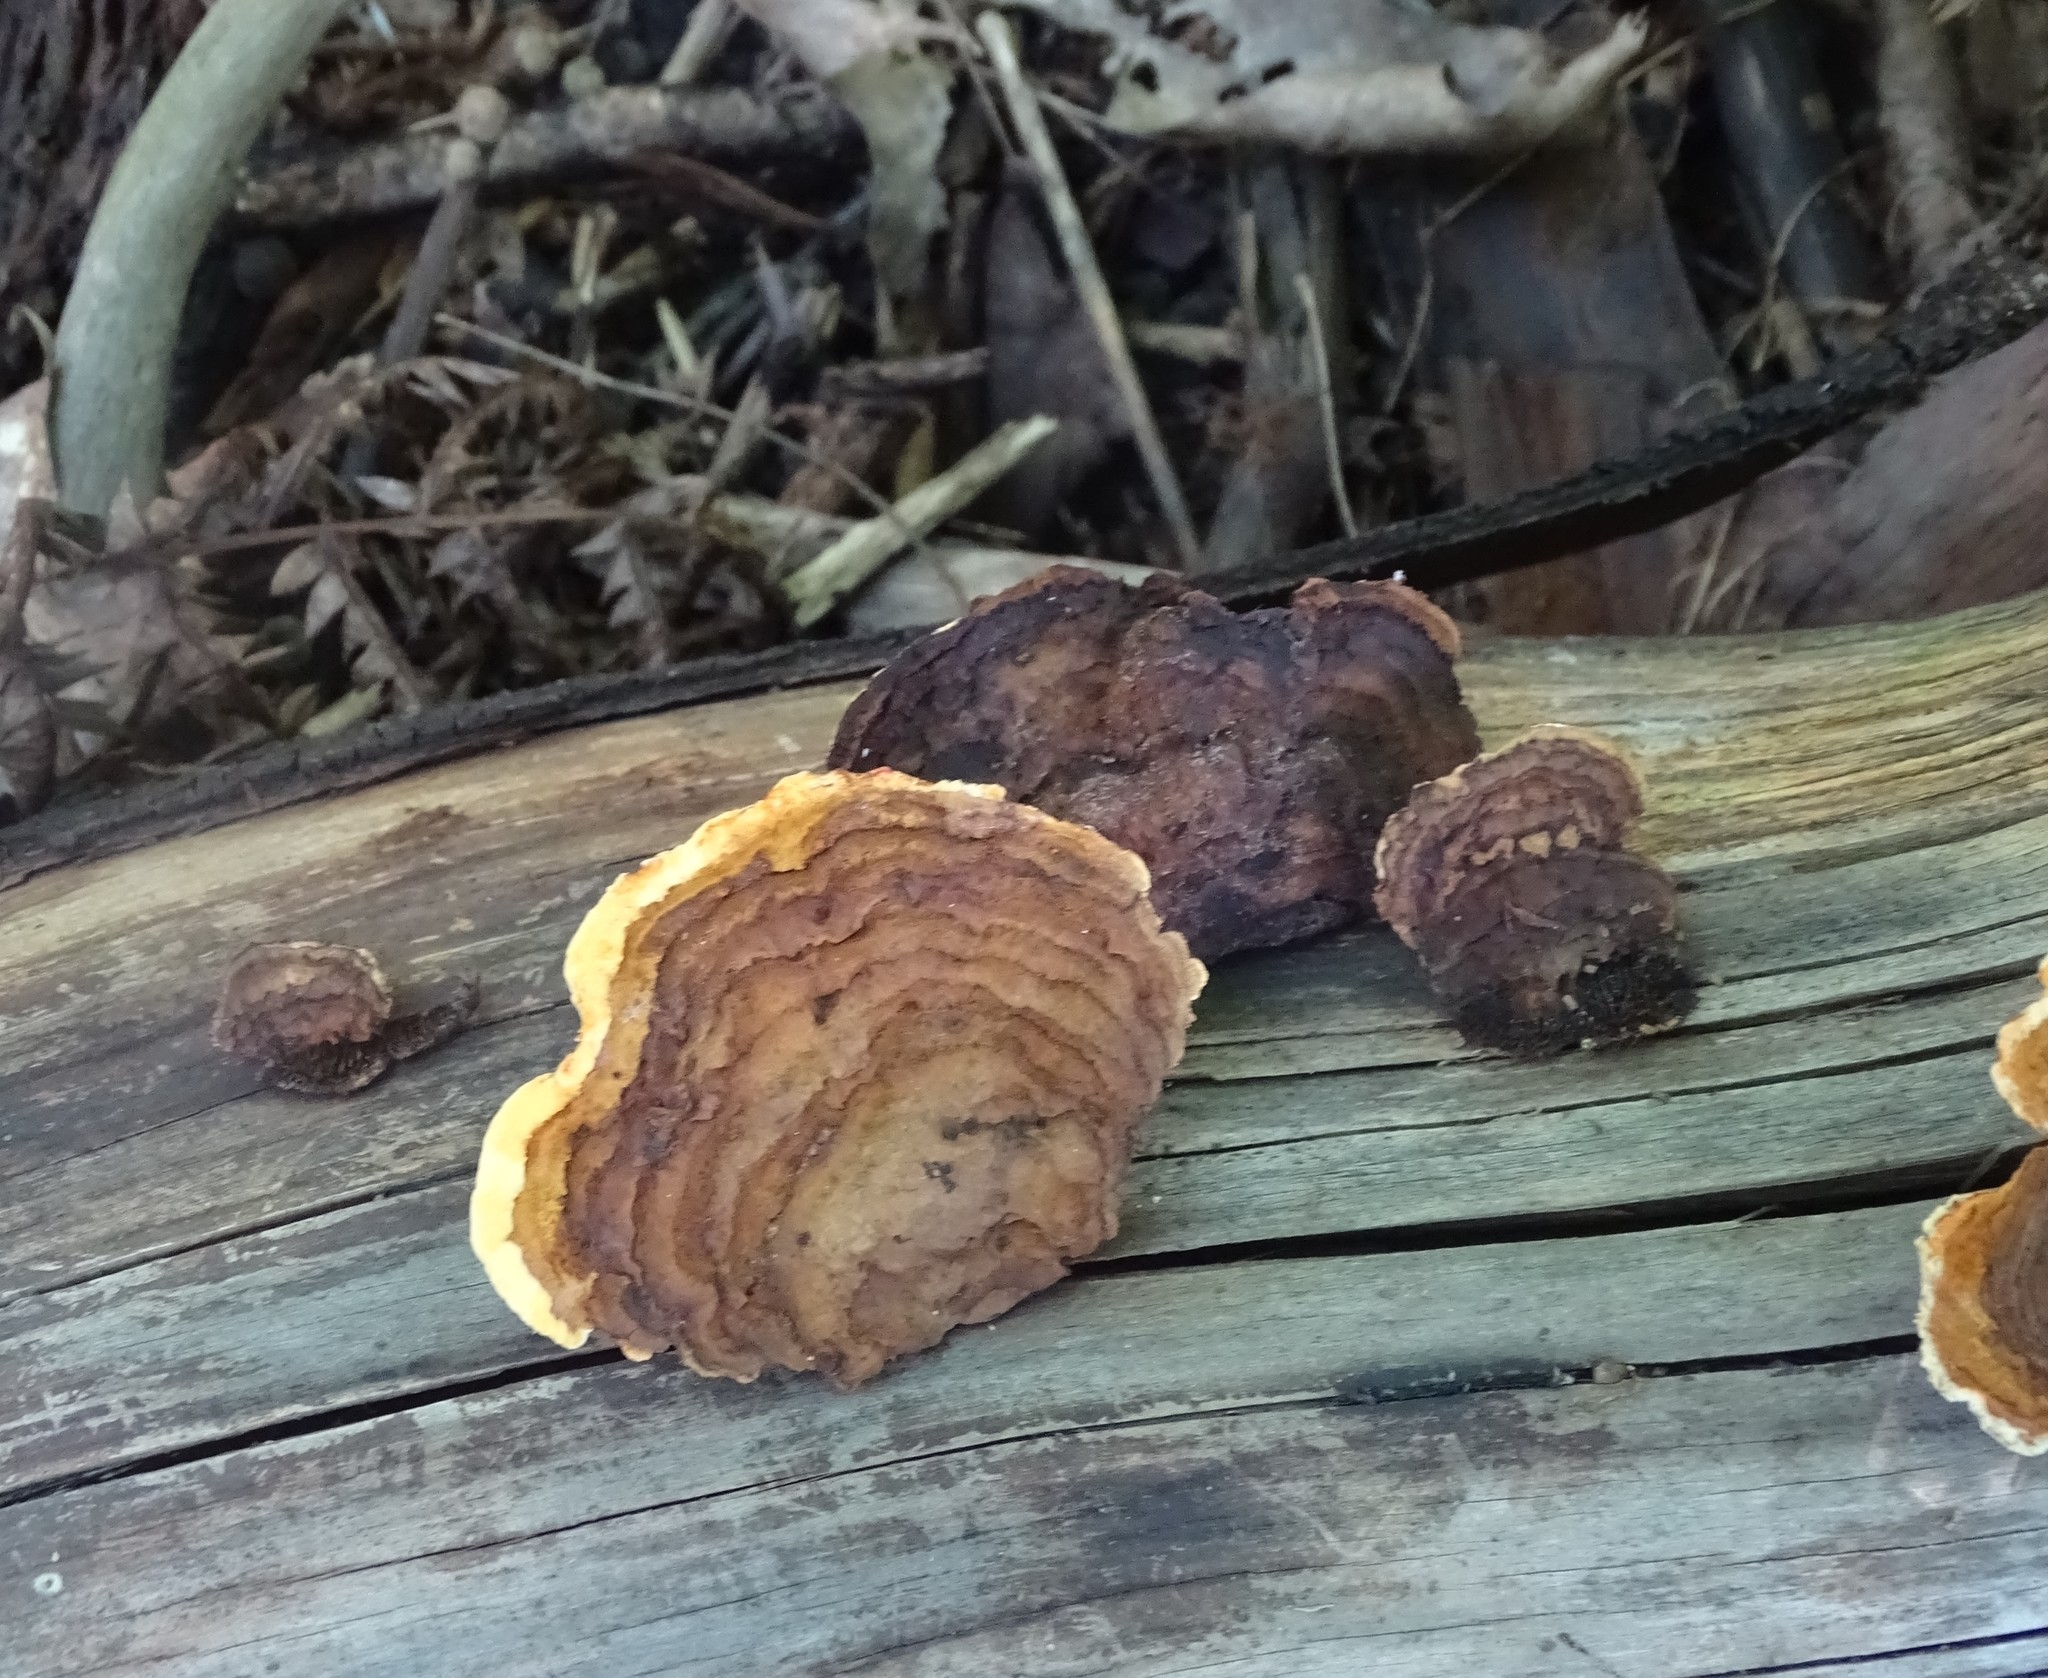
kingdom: Fungi
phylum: Basidiomycota
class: Agaricomycetes
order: Gloeophyllales
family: Gloeophyllaceae
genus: Gloeophyllum
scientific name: Gloeophyllum sepiarium
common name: Conifer mazegill
